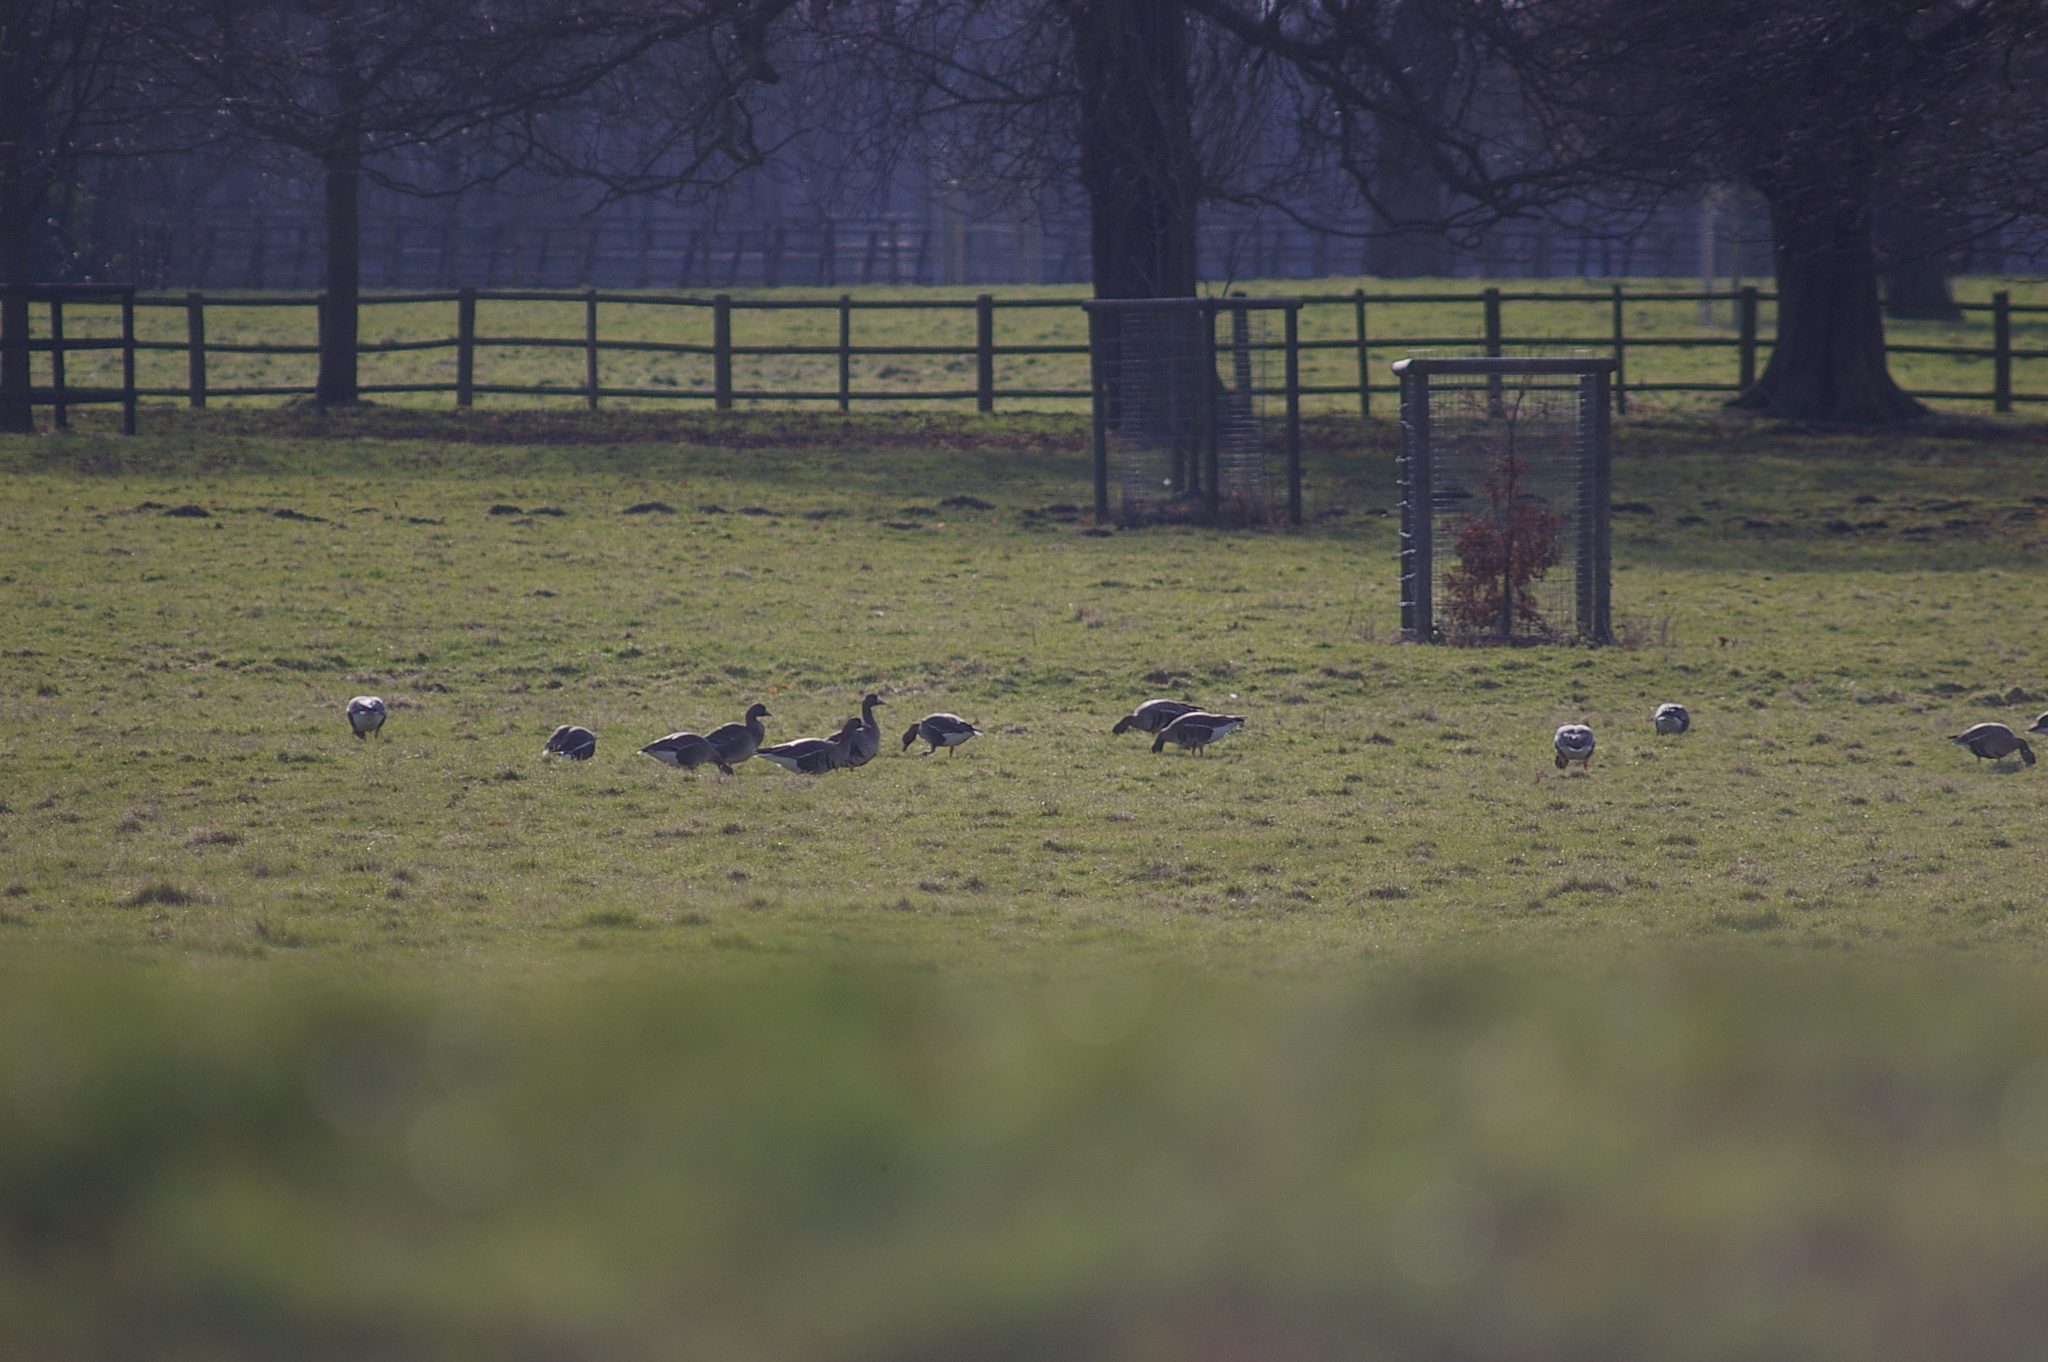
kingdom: Animalia
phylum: Chordata
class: Aves
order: Anseriformes
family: Anatidae
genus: Anser
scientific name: Anser albifrons
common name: Greater white-fronted goose
